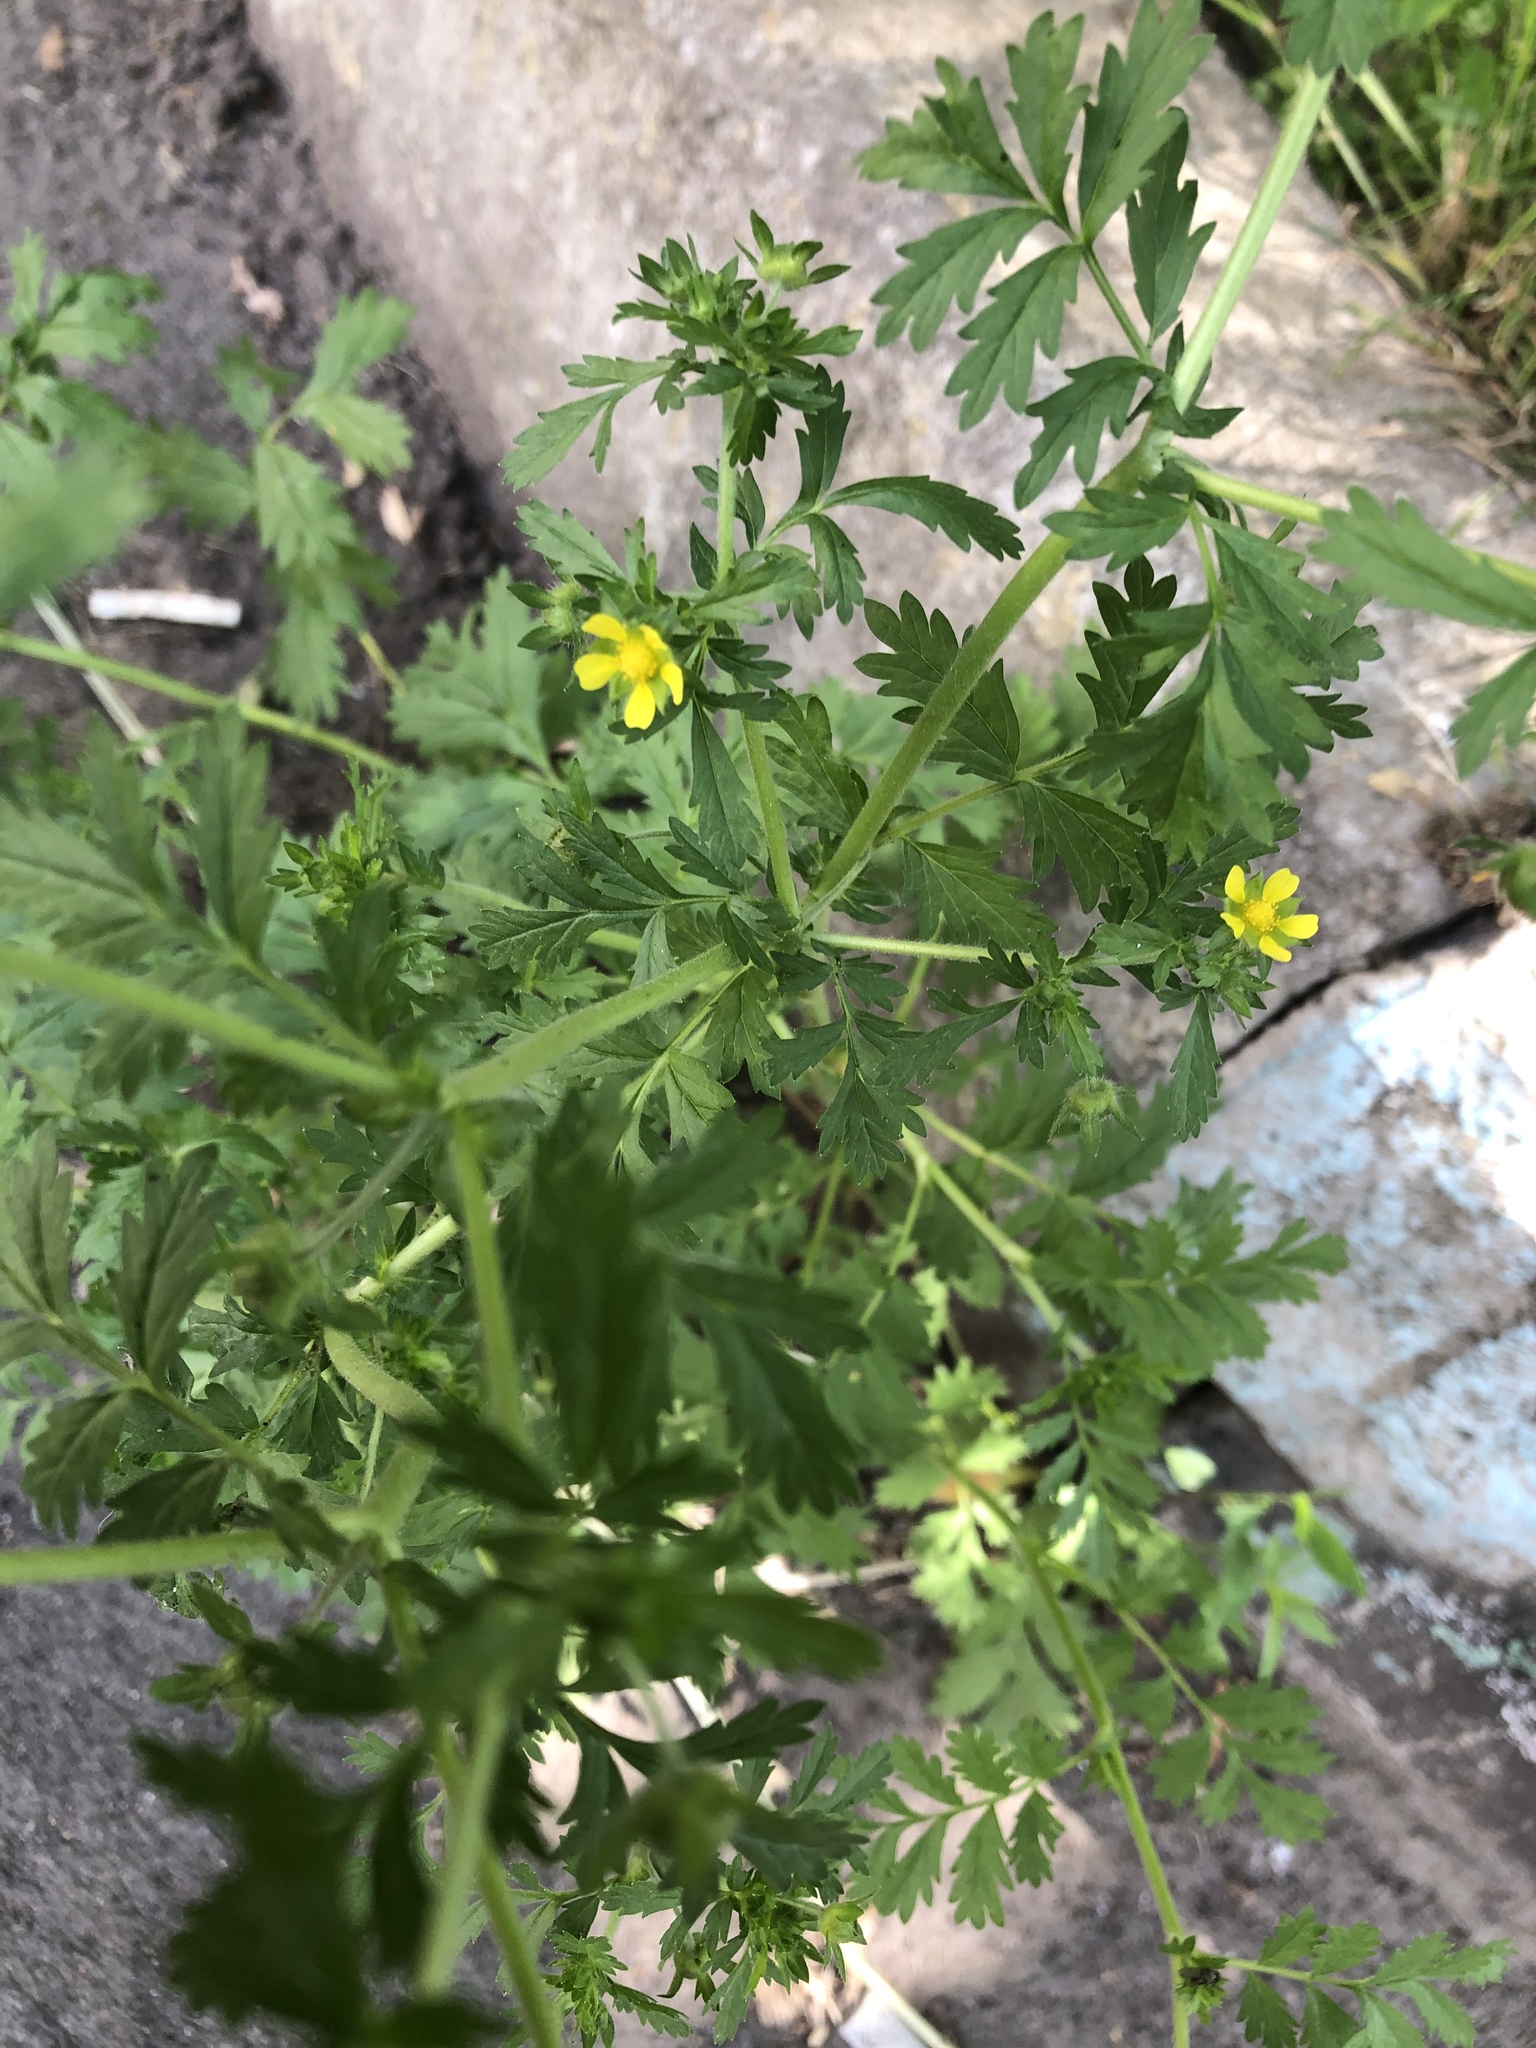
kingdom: Plantae
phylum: Tracheophyta
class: Magnoliopsida
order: Rosales
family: Rosaceae
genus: Potentilla
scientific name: Potentilla supina
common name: Prostrate cinquefoil
